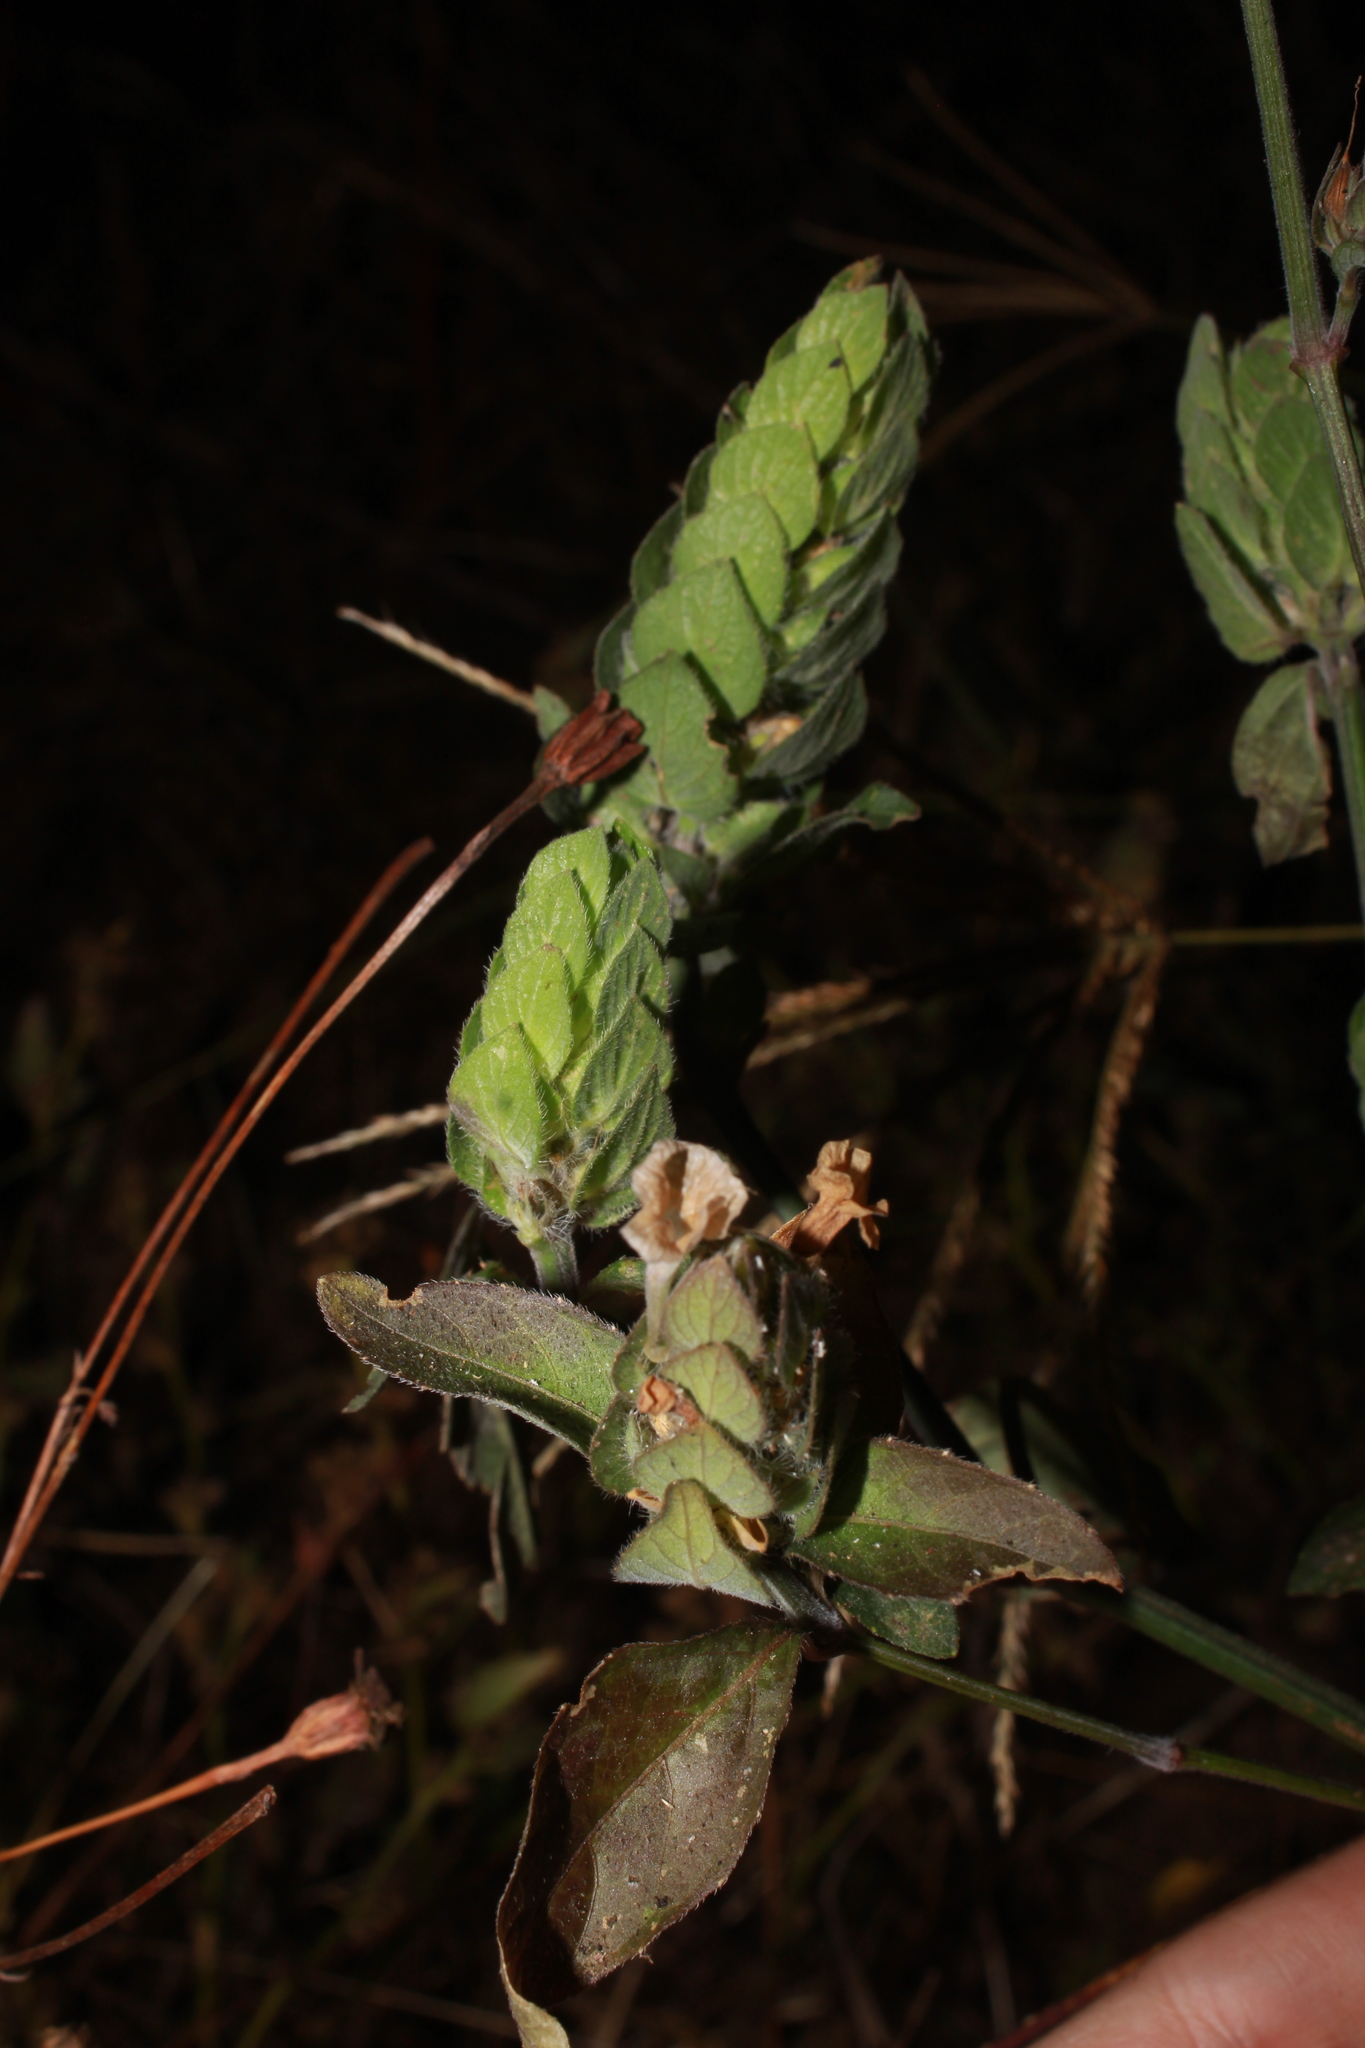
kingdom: Plantae
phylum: Tracheophyta
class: Magnoliopsida
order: Lamiales
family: Acanthaceae
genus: Ruellia
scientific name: Ruellia blechum
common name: Browne's blechum
